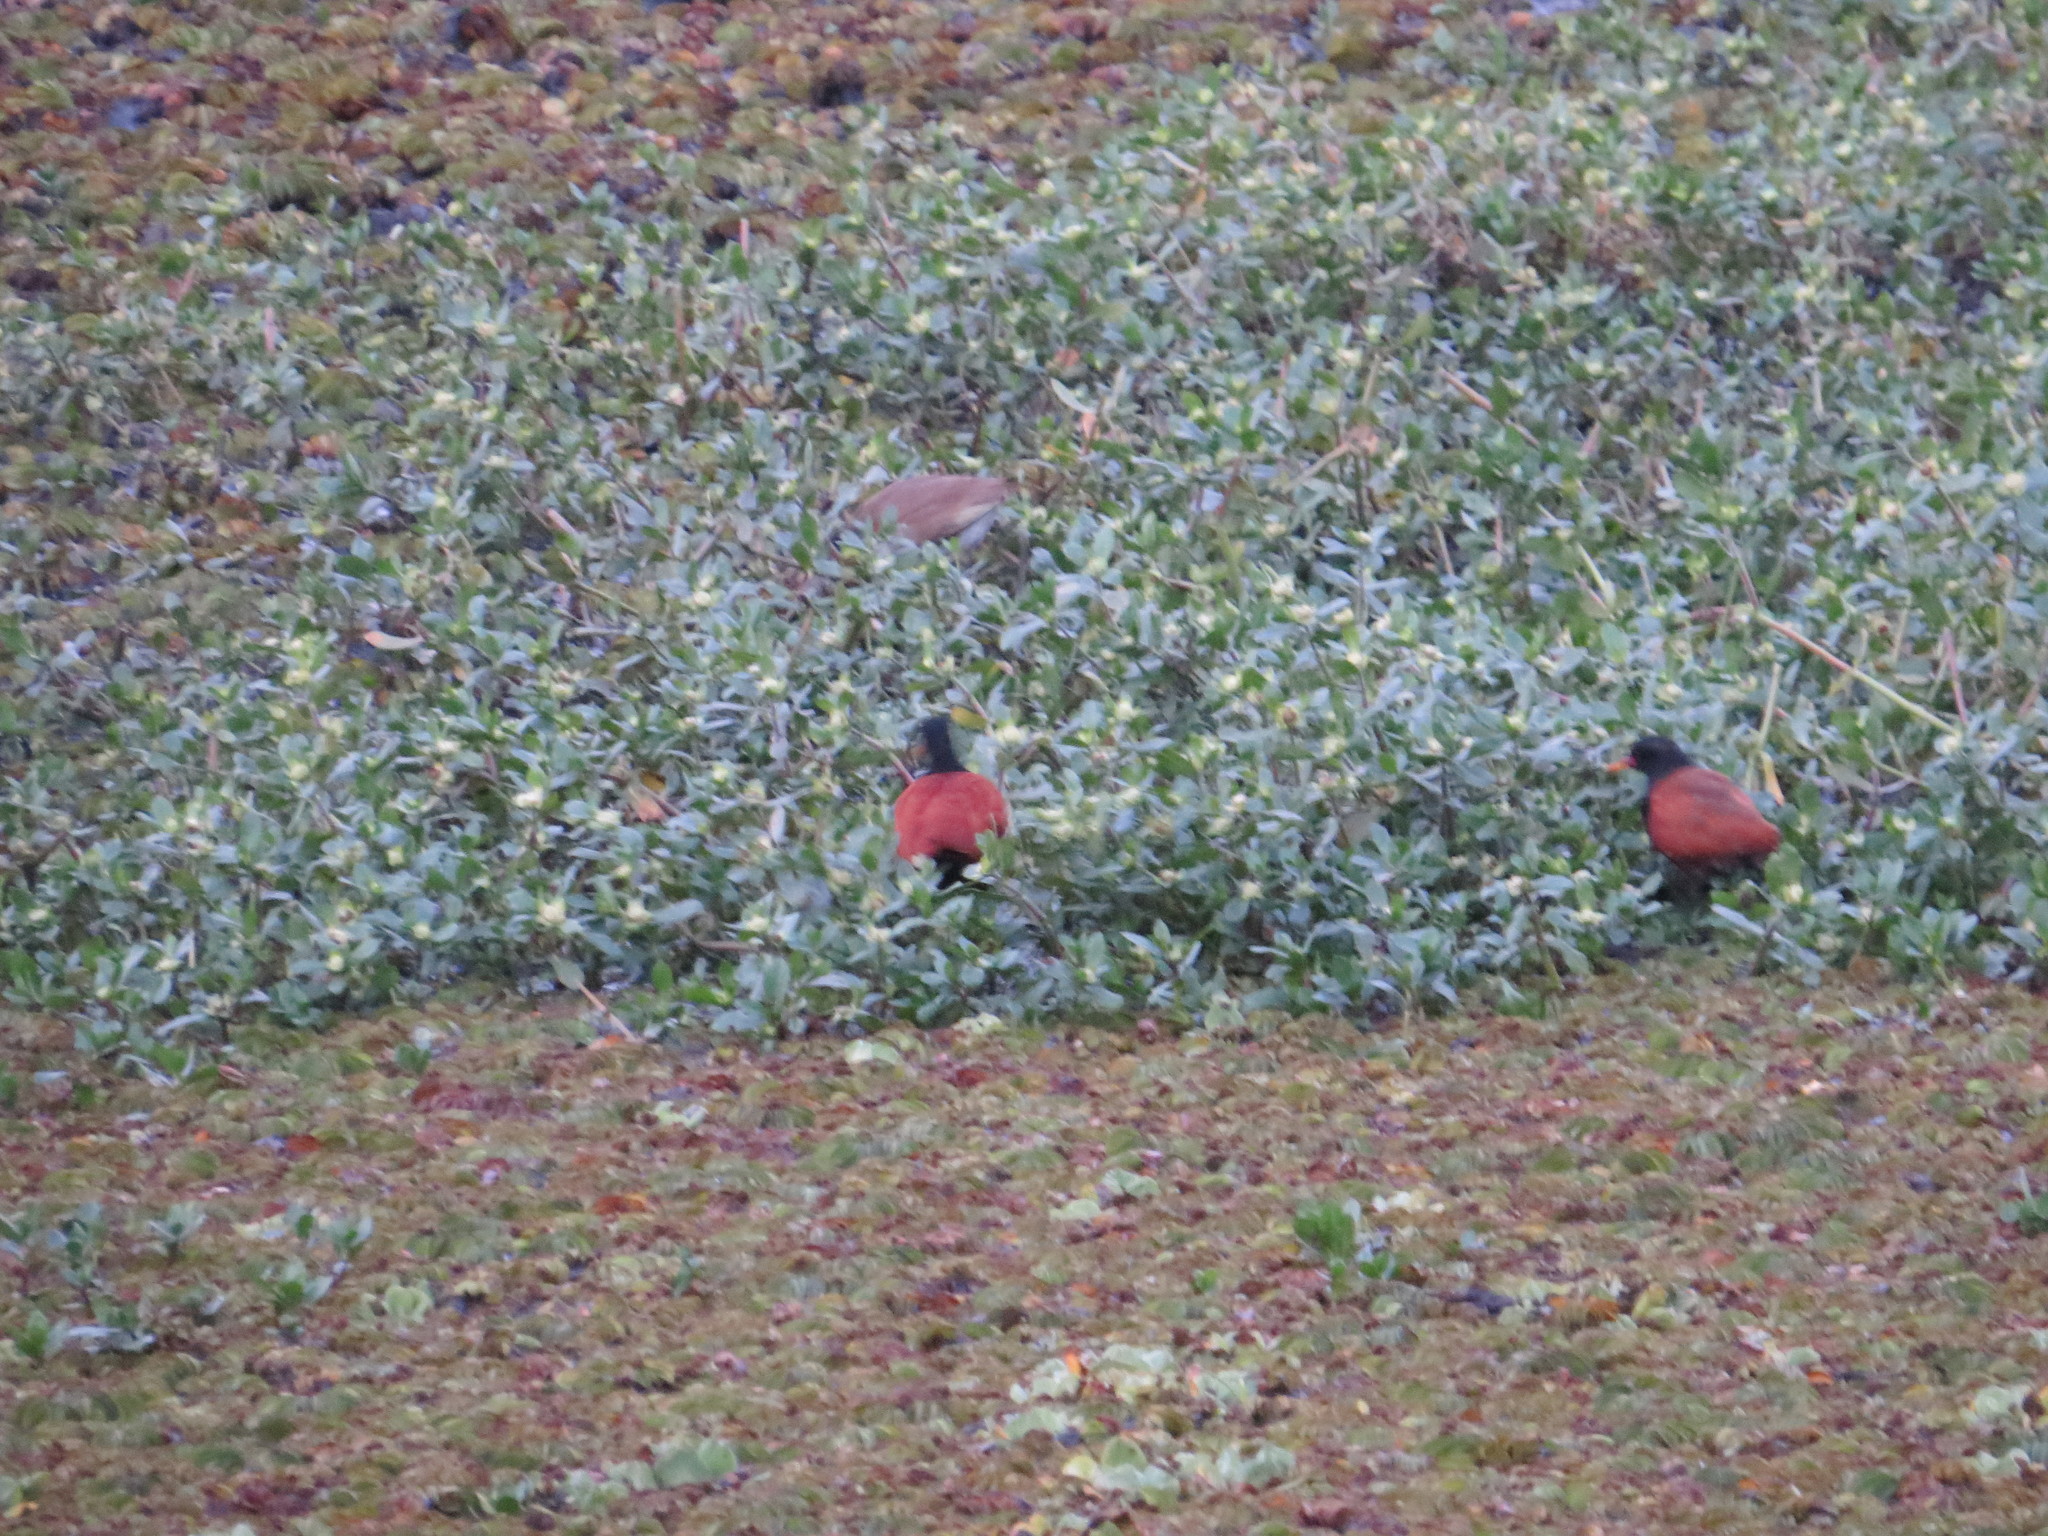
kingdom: Animalia
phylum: Chordata
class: Aves
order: Charadriiformes
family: Jacanidae
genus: Jacana
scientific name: Jacana jacana
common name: Wattled jacana
